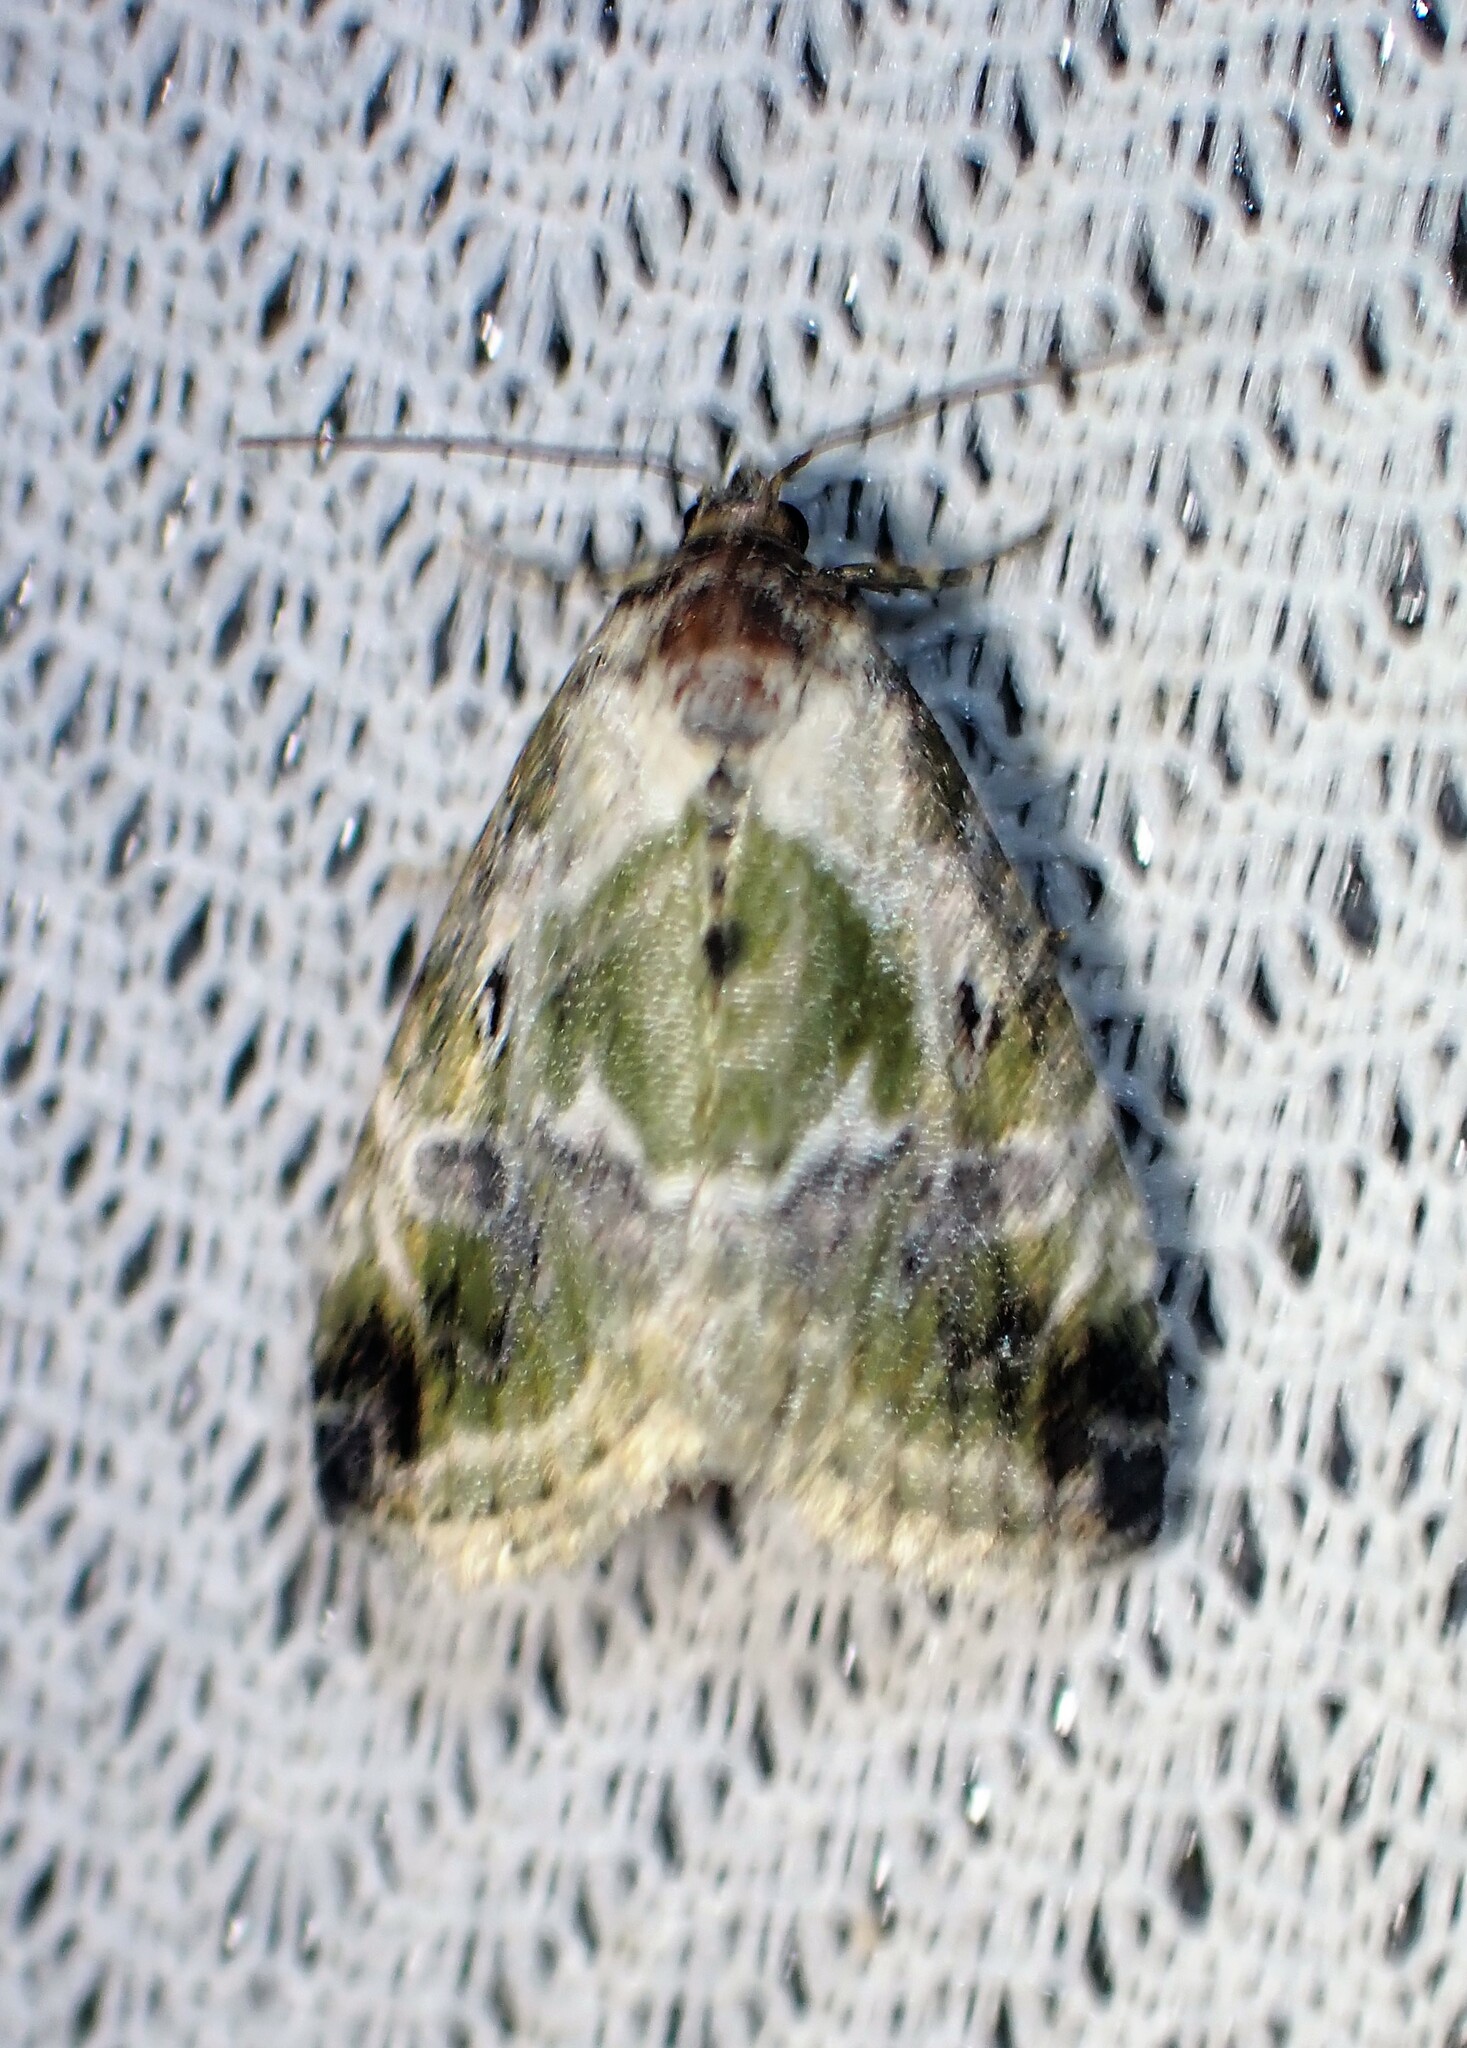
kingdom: Animalia
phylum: Arthropoda
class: Insecta
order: Lepidoptera
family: Noctuidae
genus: Maliattha
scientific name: Maliattha synochitis
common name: Black-dotted glyph
